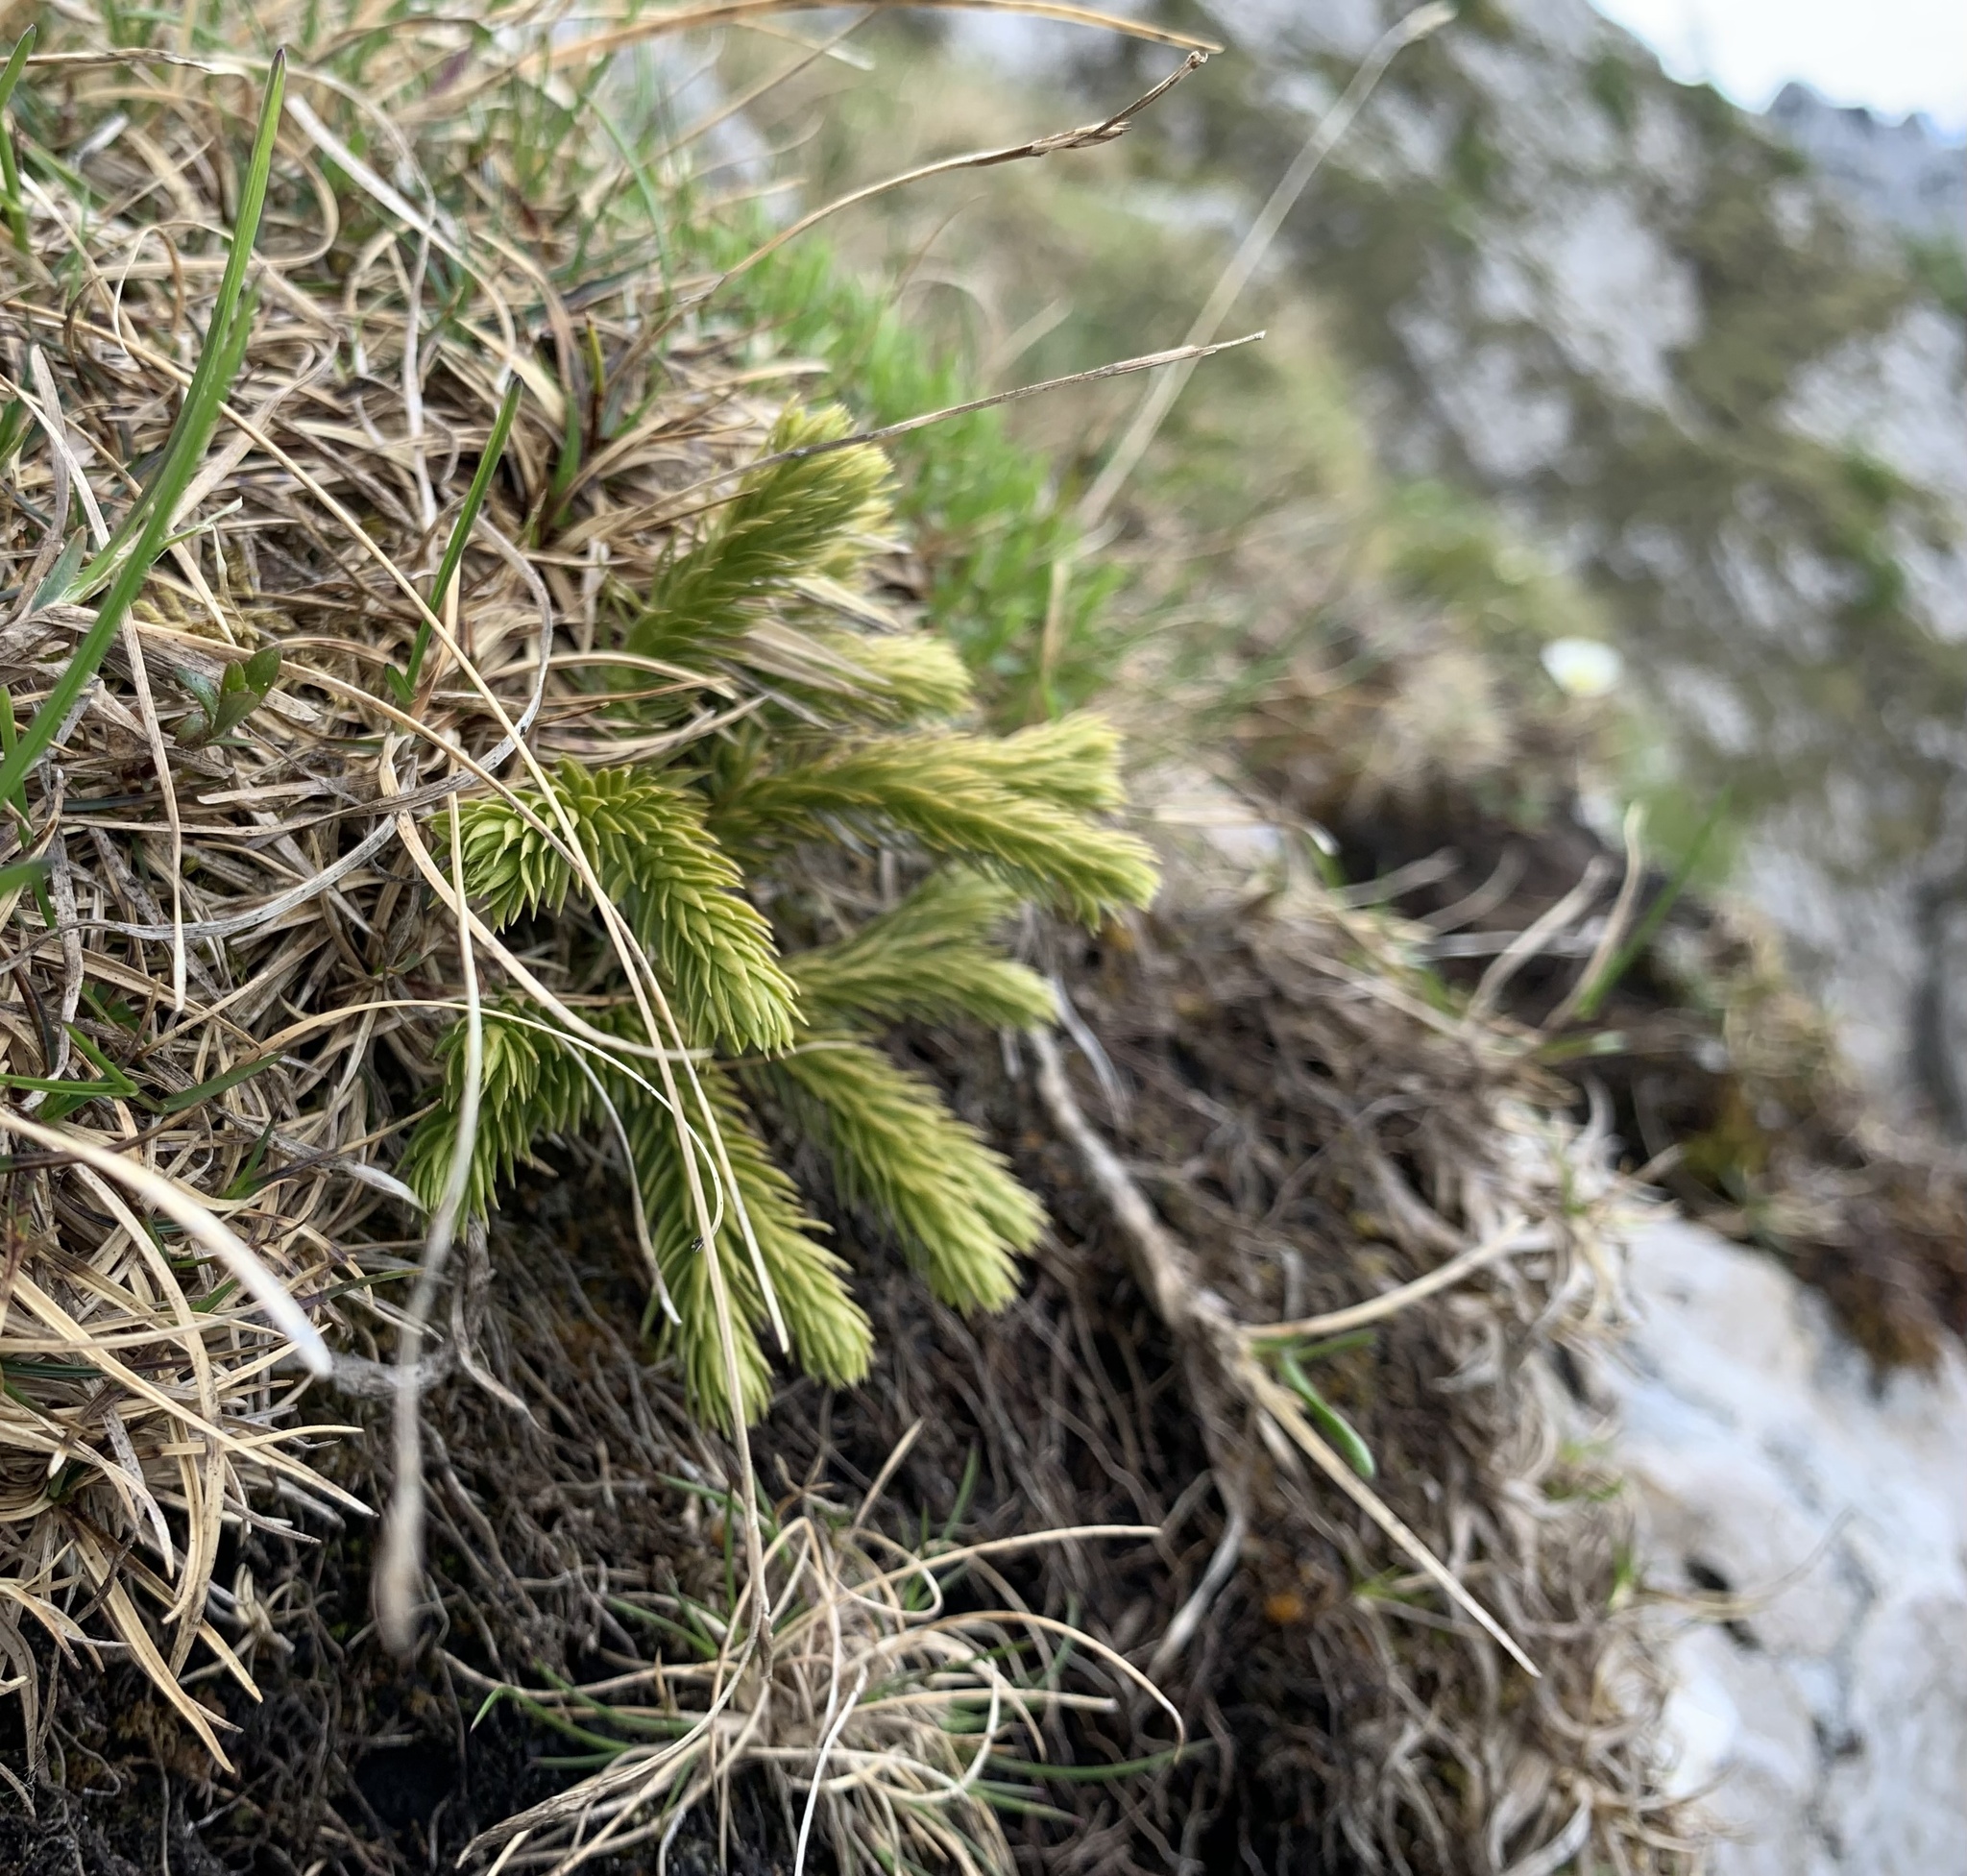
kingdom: Plantae
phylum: Tracheophyta
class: Lycopodiopsida
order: Lycopodiales
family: Lycopodiaceae
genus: Huperzia
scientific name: Huperzia selago
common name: Northern firmoss
